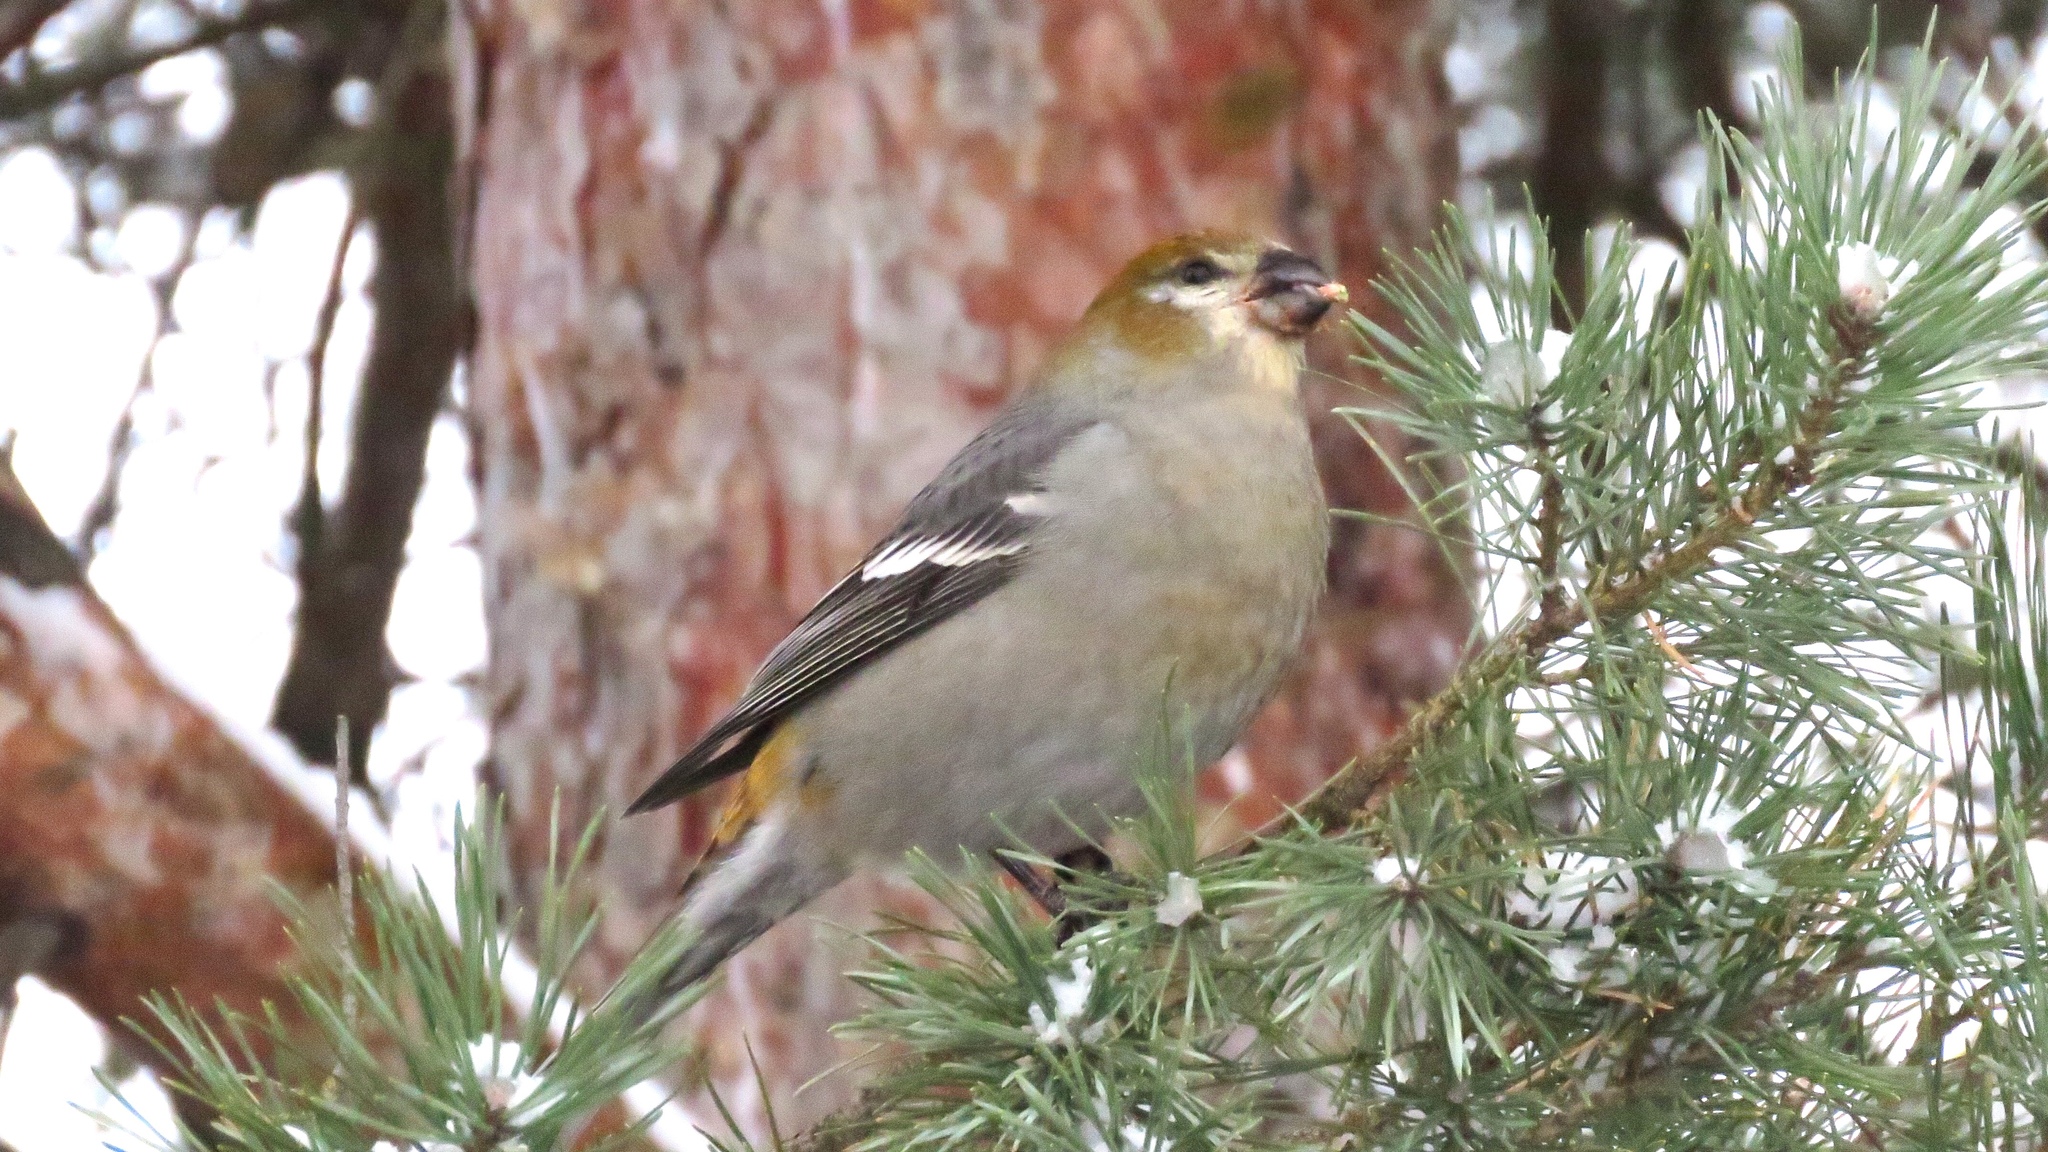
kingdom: Animalia
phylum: Chordata
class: Aves
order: Passeriformes
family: Fringillidae
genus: Pinicola
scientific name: Pinicola enucleator
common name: Pine grosbeak
